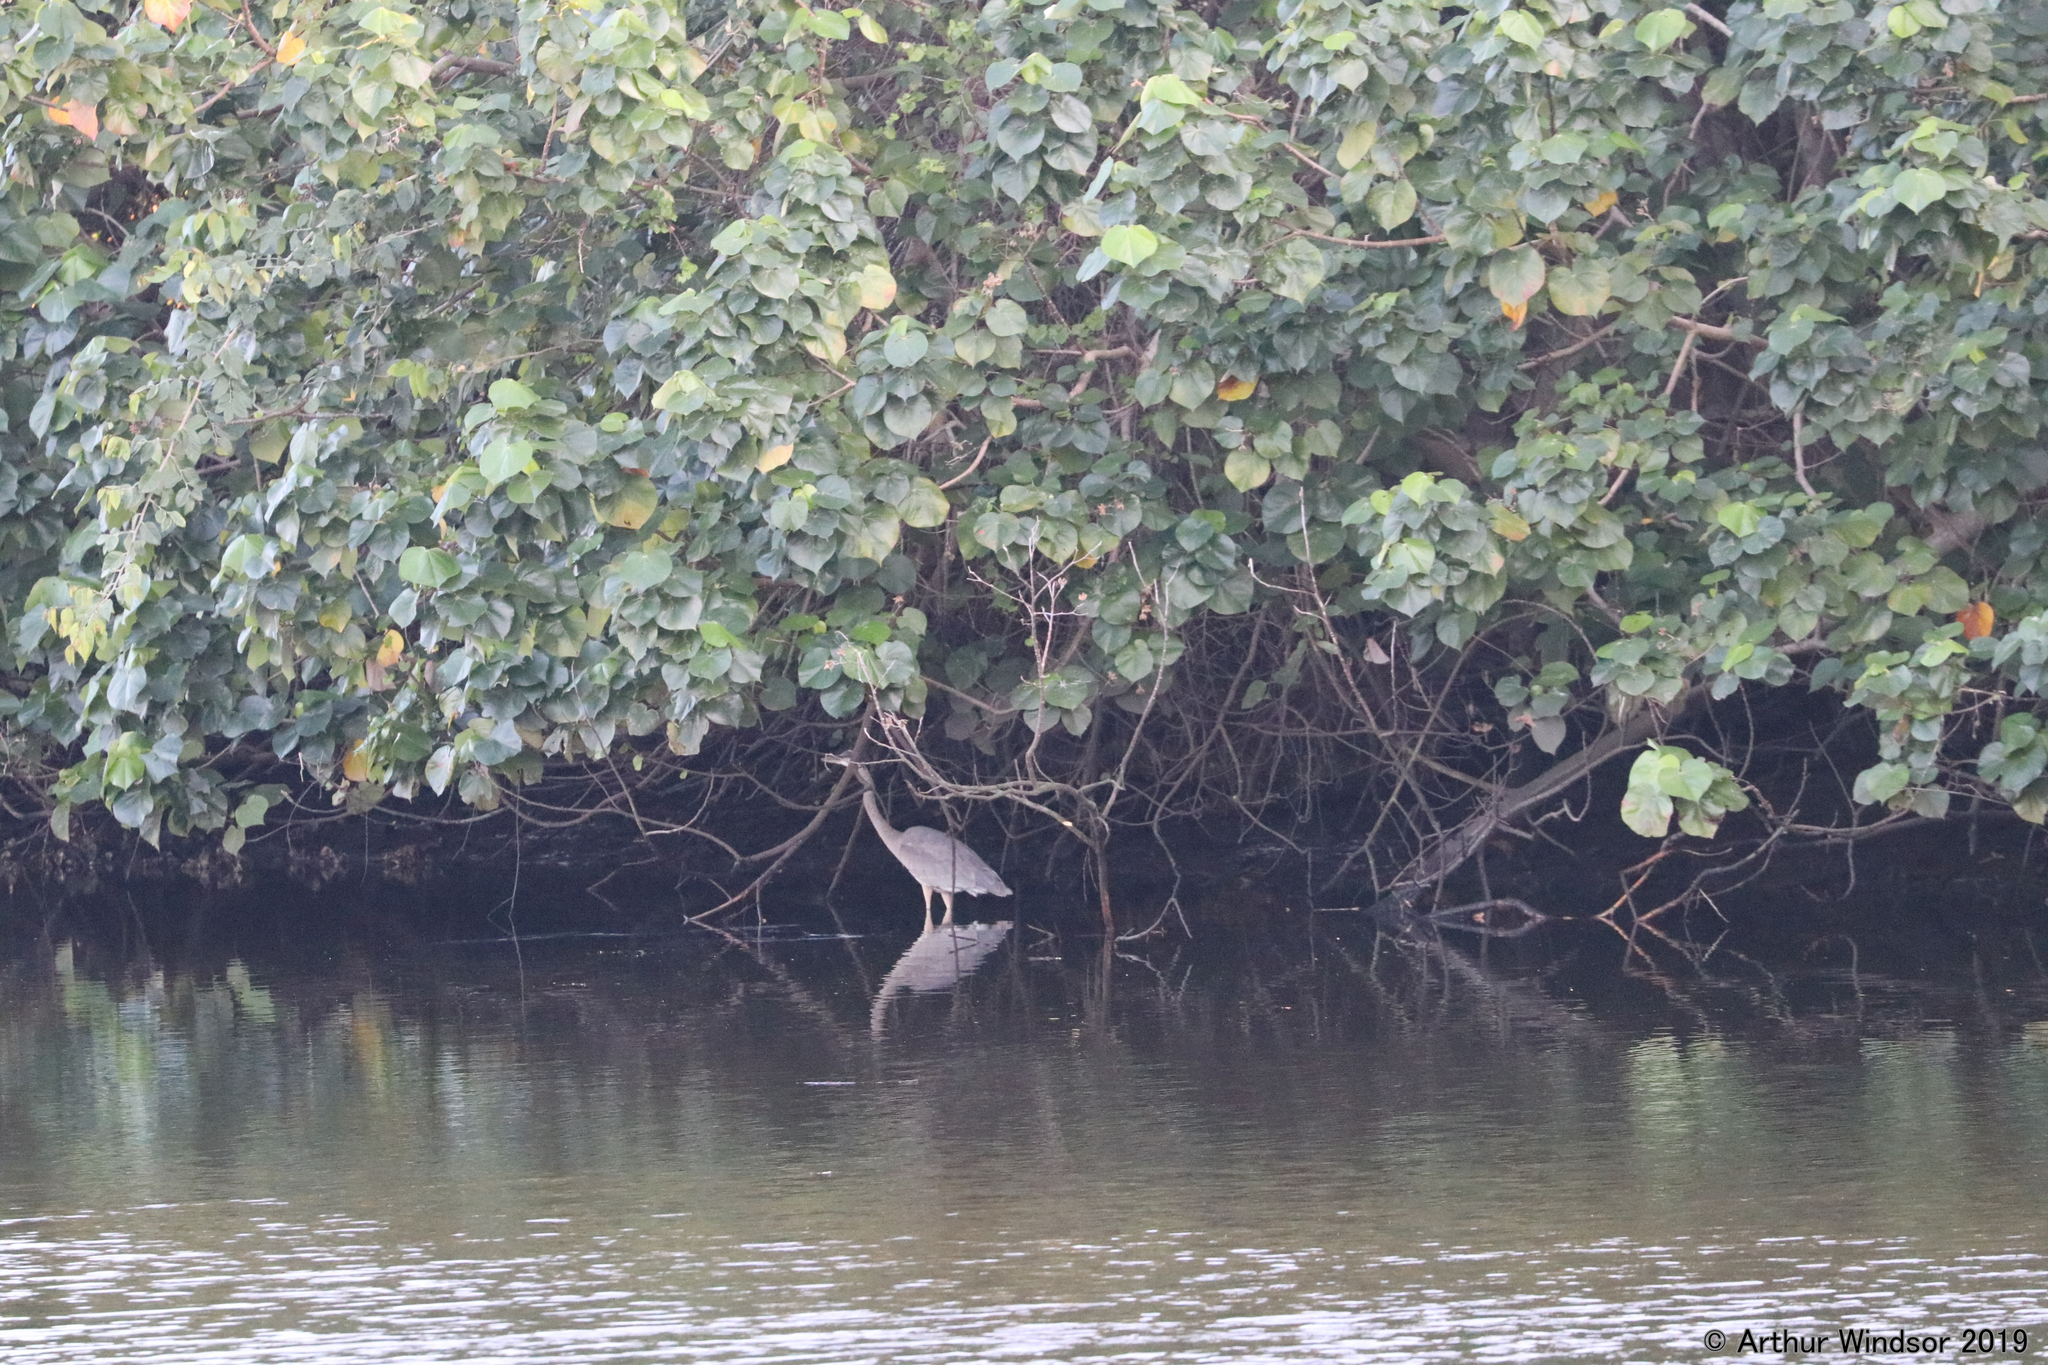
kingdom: Animalia
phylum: Chordata
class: Aves
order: Pelecaniformes
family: Ardeidae
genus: Ardea
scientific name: Ardea herodias
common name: Great blue heron
